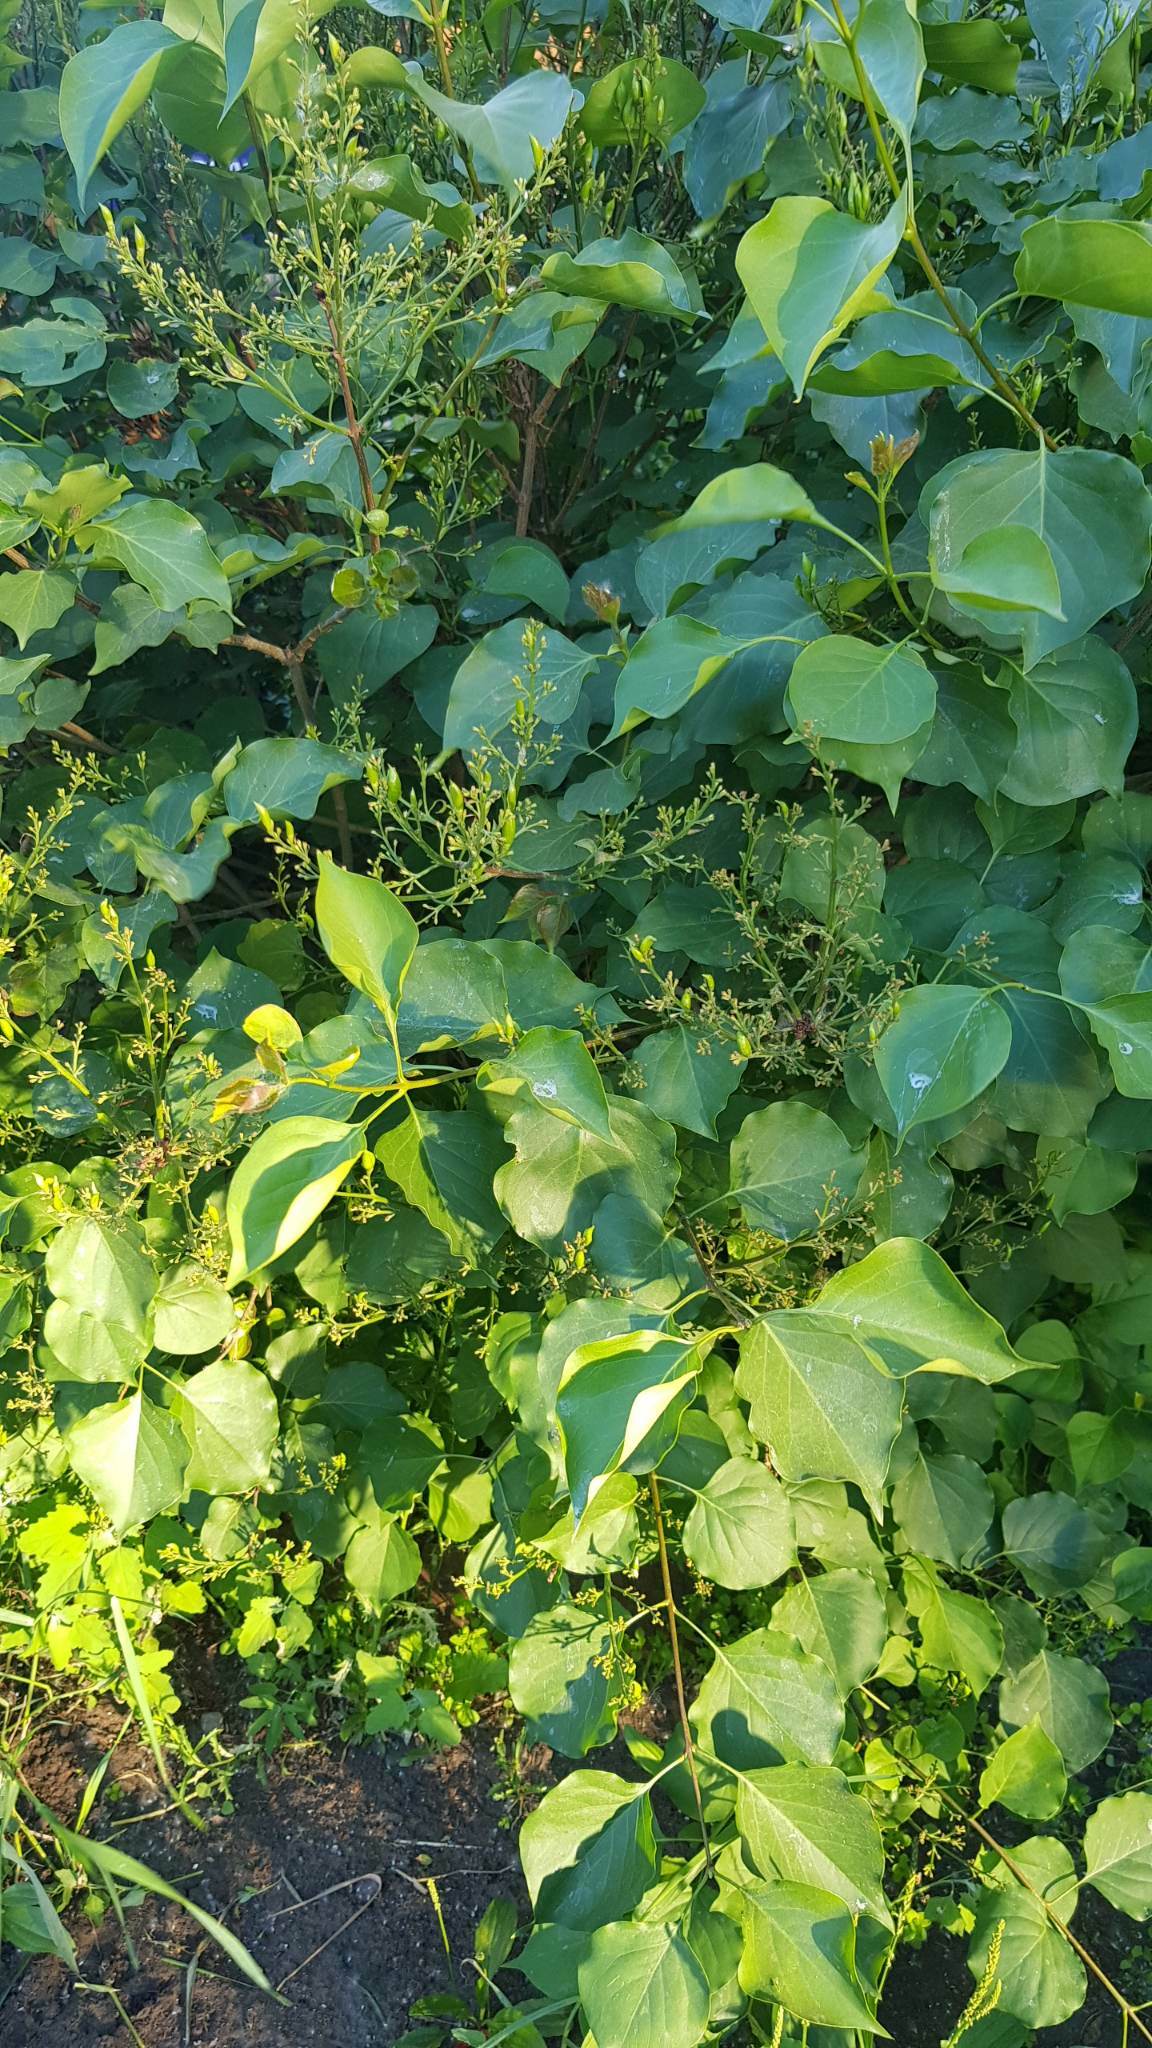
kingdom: Plantae
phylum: Tracheophyta
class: Magnoliopsida
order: Lamiales
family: Oleaceae
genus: Syringa
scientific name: Syringa vulgaris
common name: Common lilac
